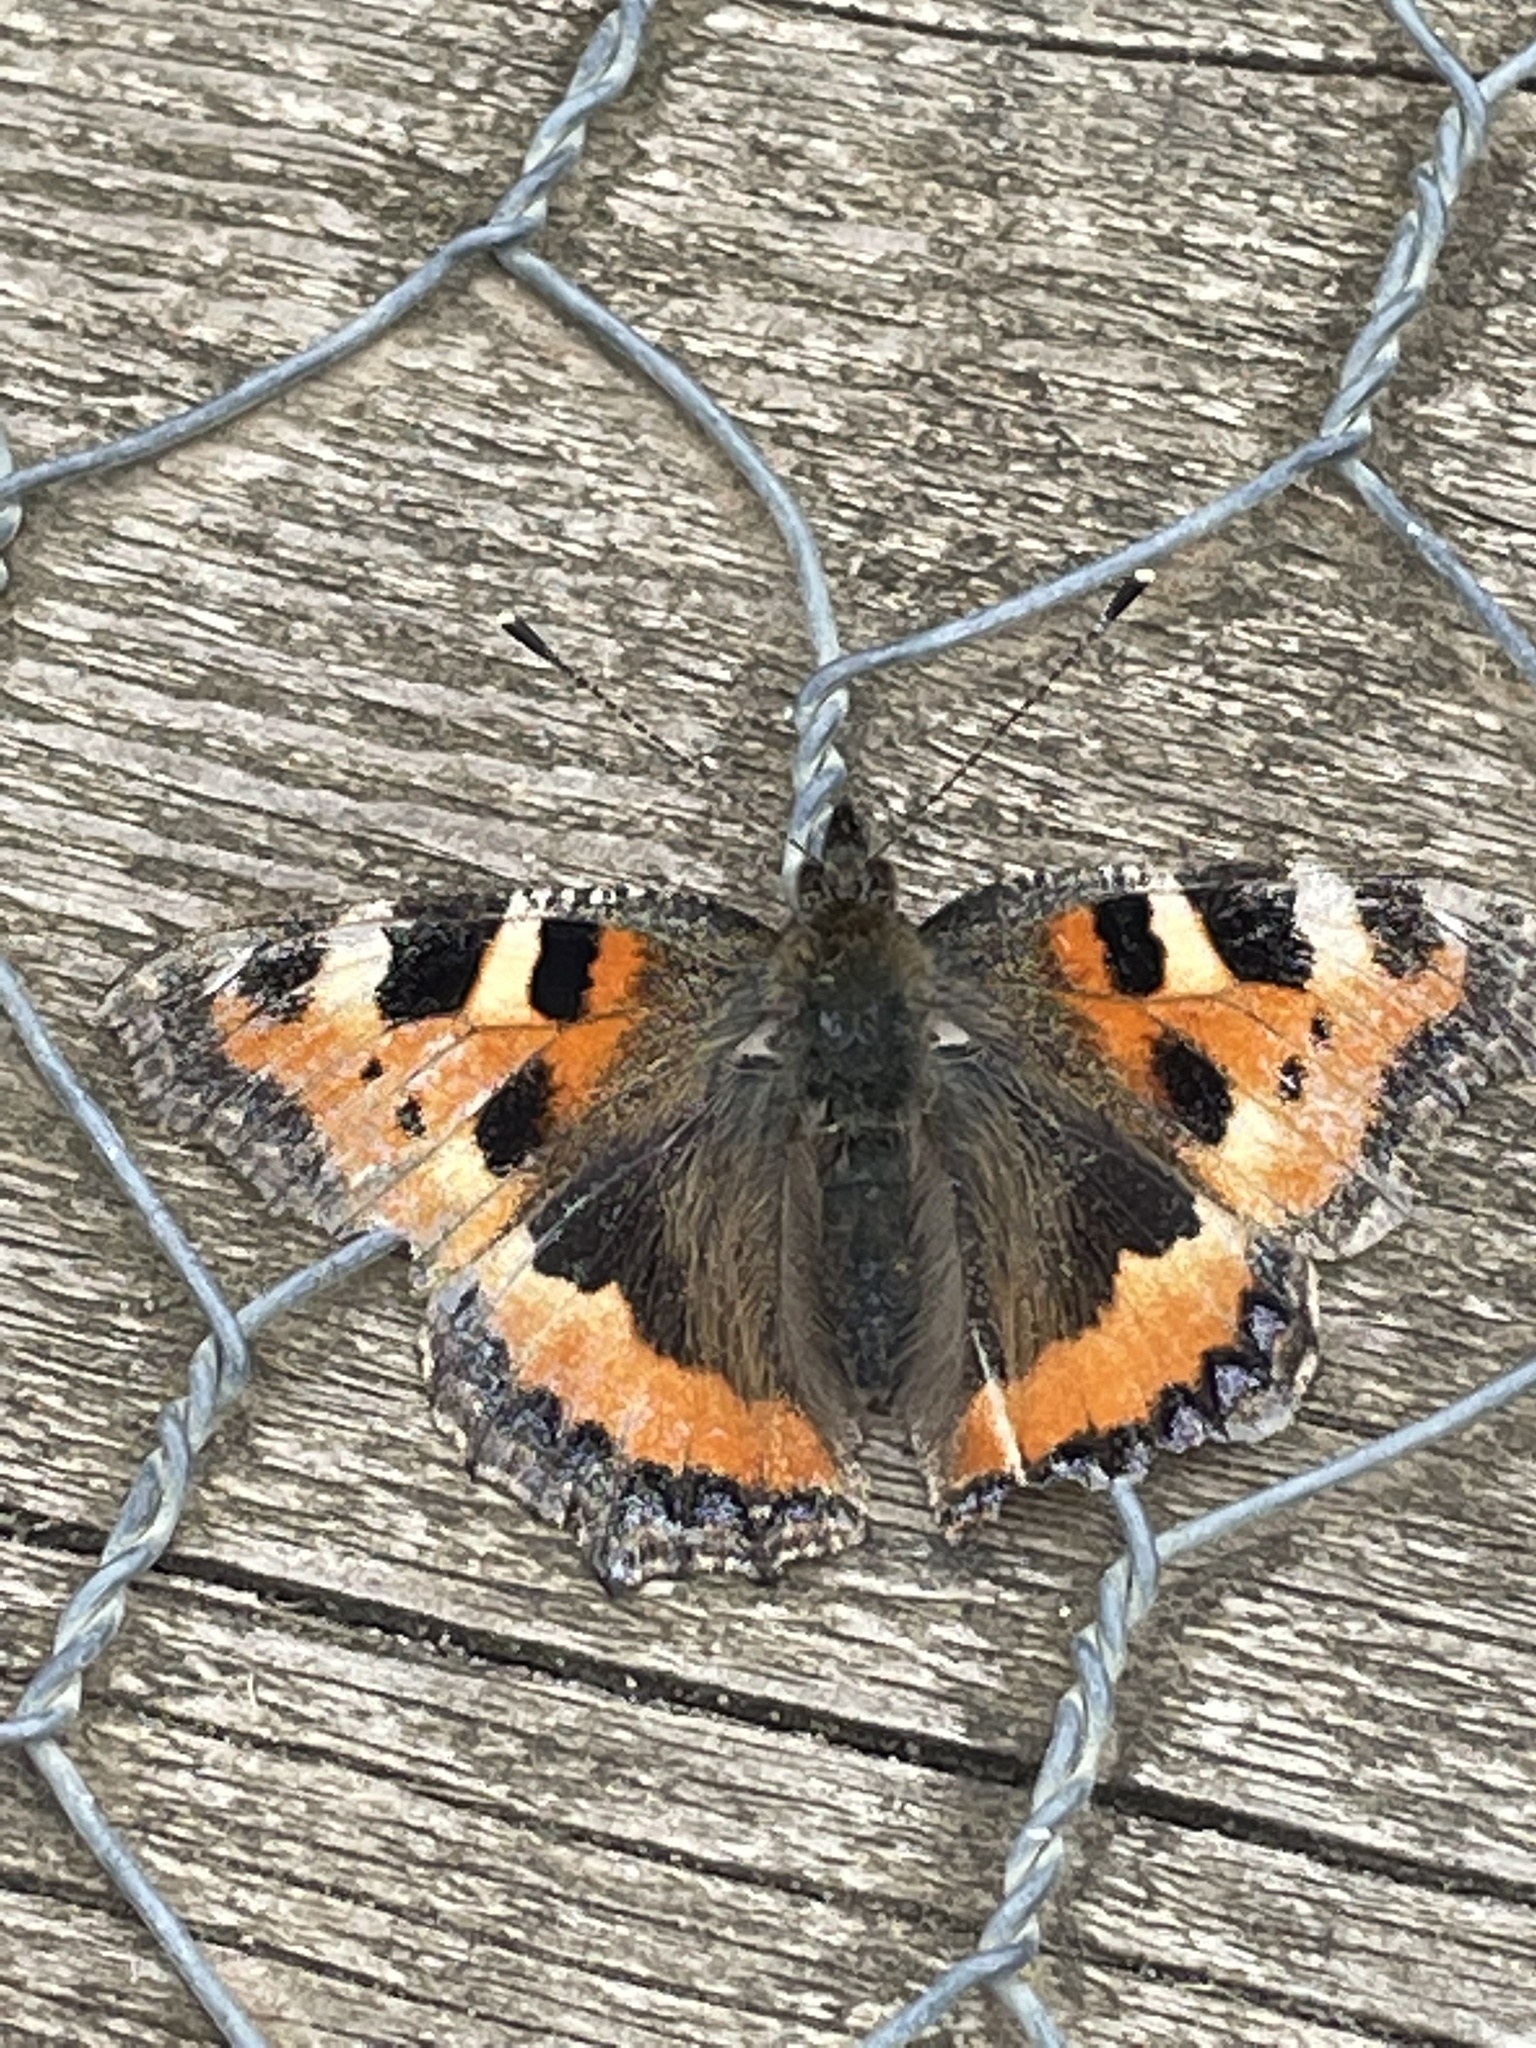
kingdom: Animalia
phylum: Arthropoda
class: Insecta
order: Lepidoptera
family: Nymphalidae
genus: Aglais
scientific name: Aglais urticae
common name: Small tortoiseshell
